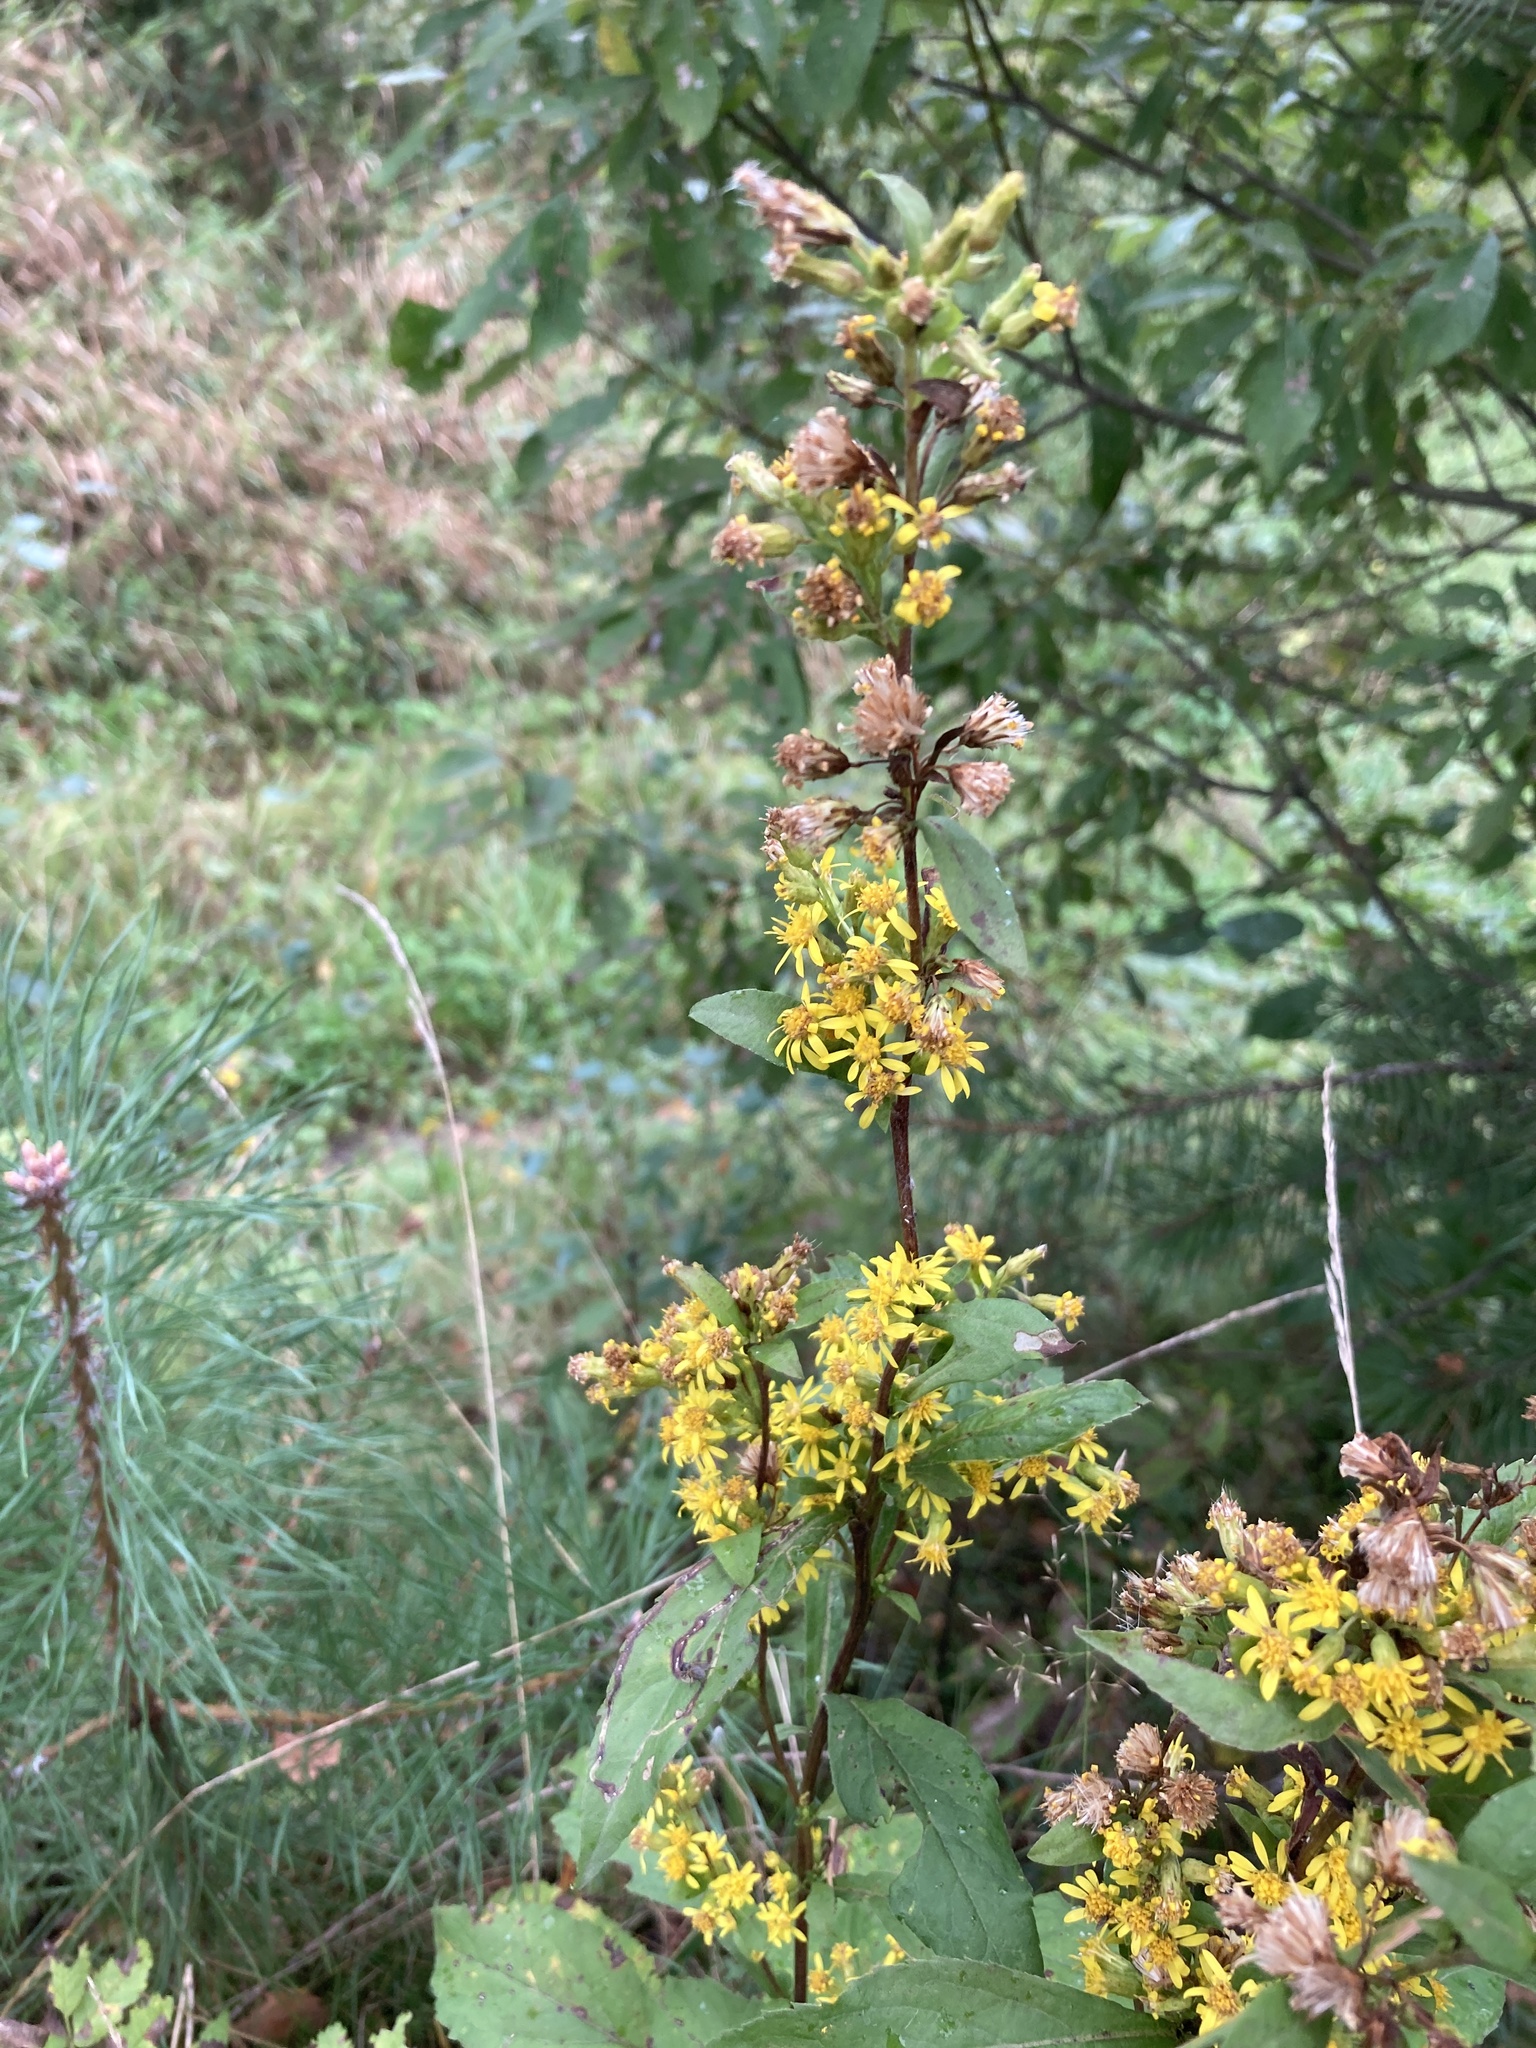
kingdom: Plantae
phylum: Tracheophyta
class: Magnoliopsida
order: Asterales
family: Asteraceae
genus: Solidago
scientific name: Solidago virgaurea
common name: Goldenrod
